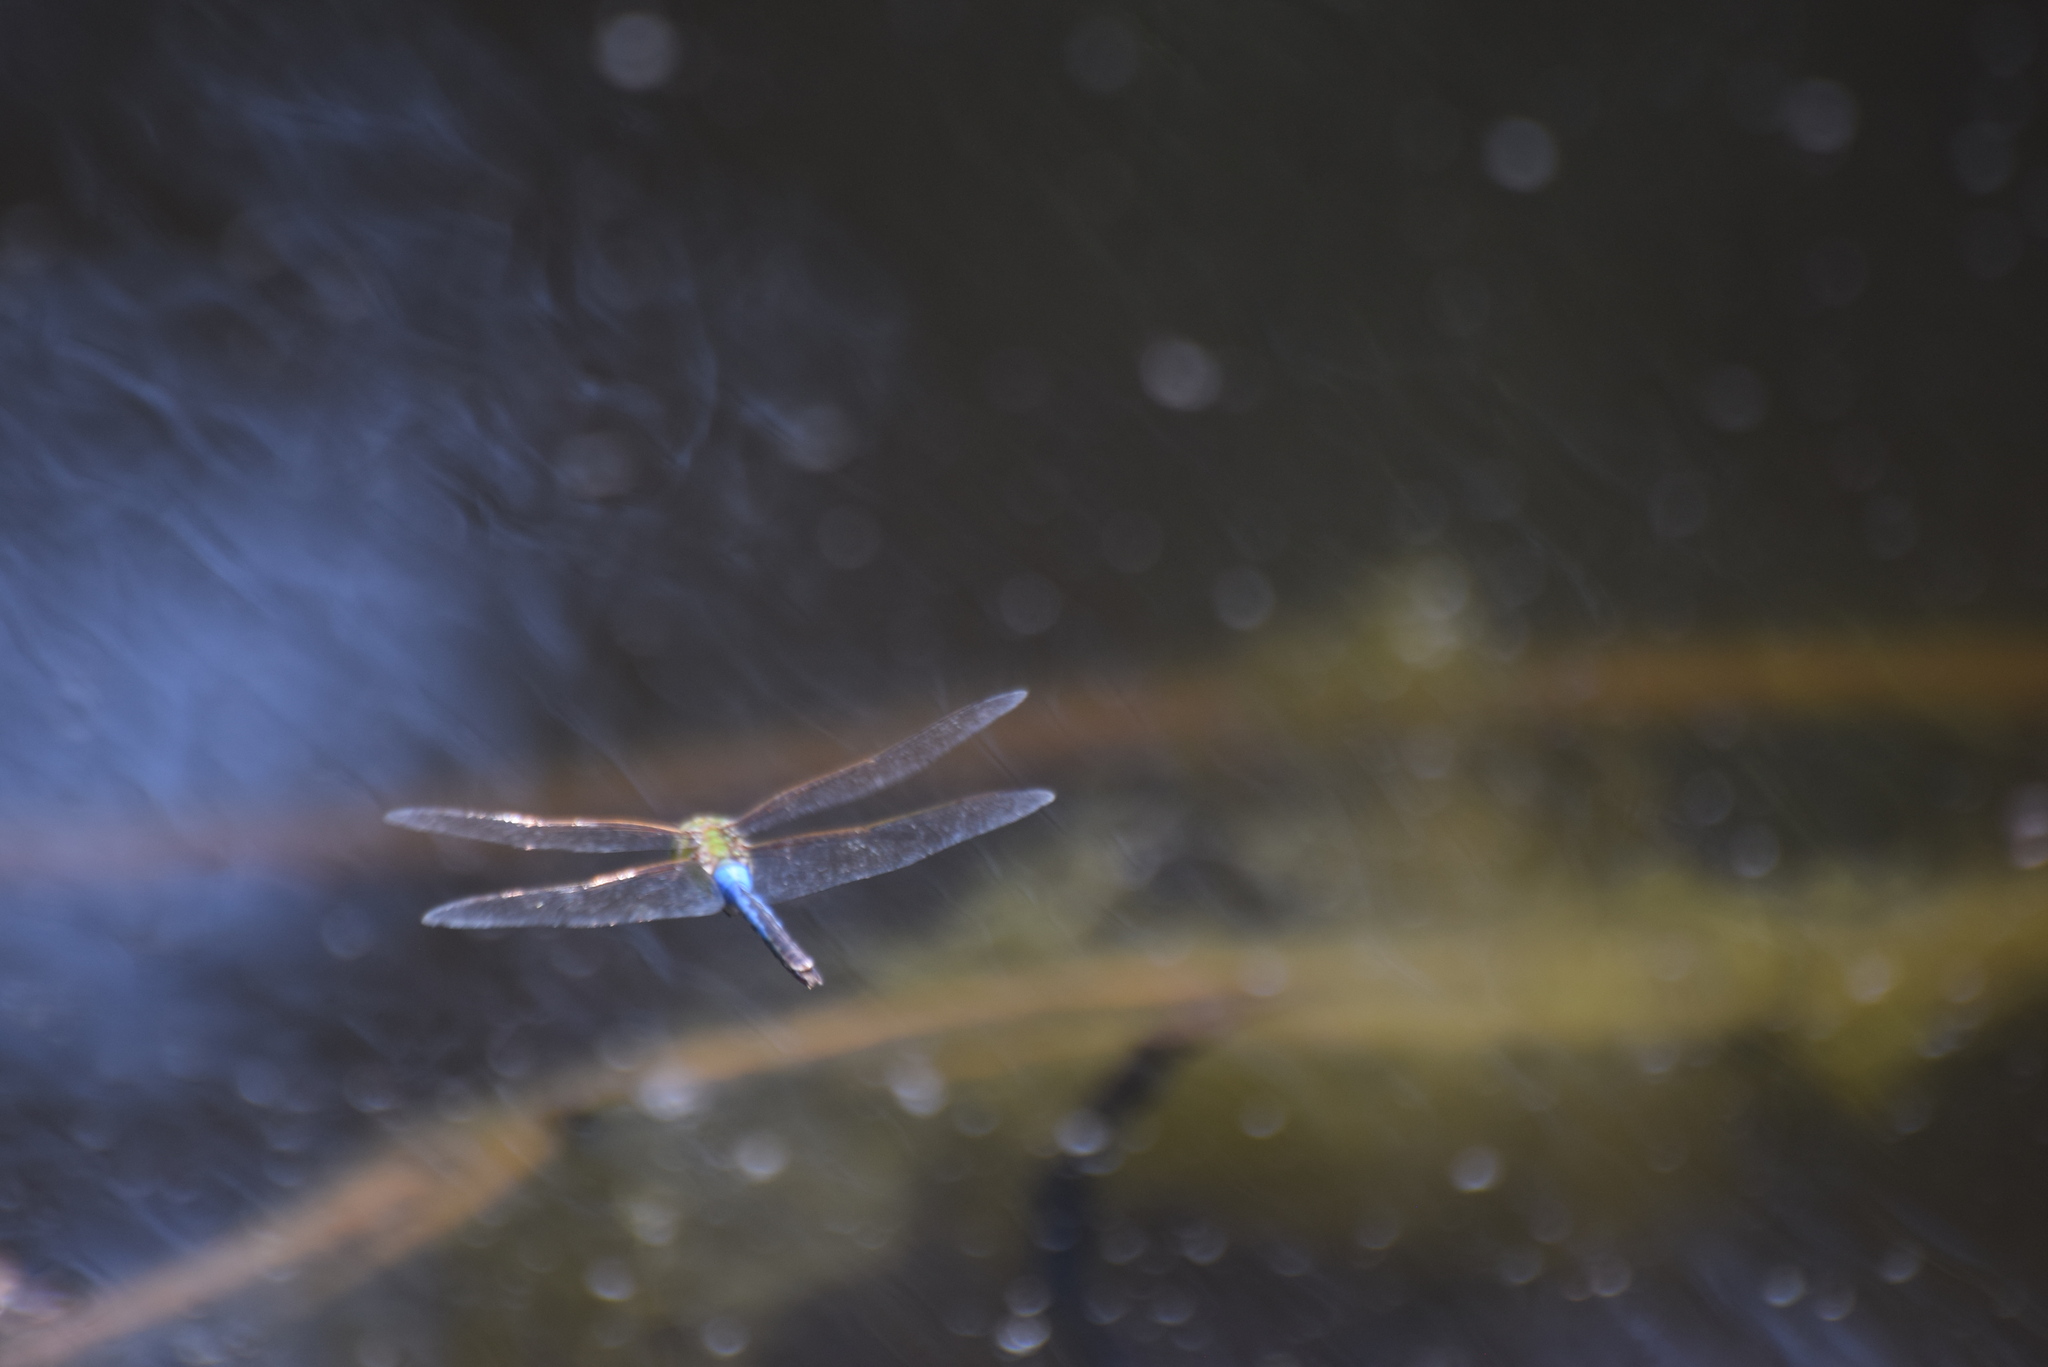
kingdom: Animalia
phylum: Arthropoda
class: Insecta
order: Odonata
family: Aeshnidae
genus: Anax
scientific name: Anax junius
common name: Common green darner
